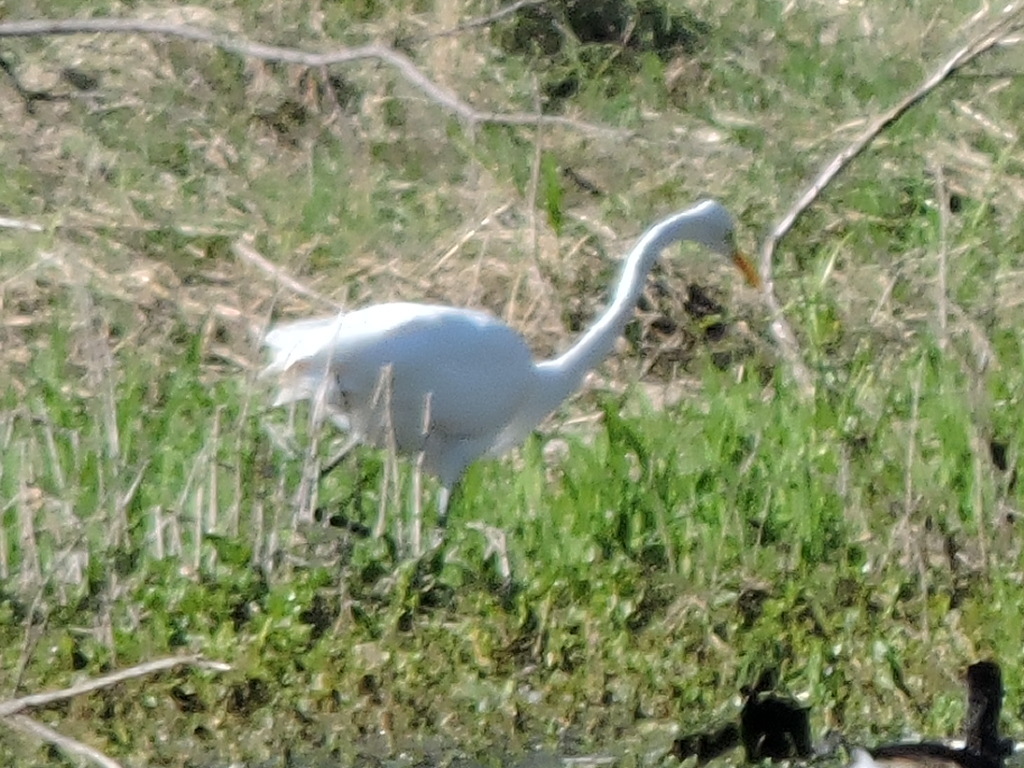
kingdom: Animalia
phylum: Chordata
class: Aves
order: Pelecaniformes
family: Ardeidae
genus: Ardea
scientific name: Ardea alba
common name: Great egret
